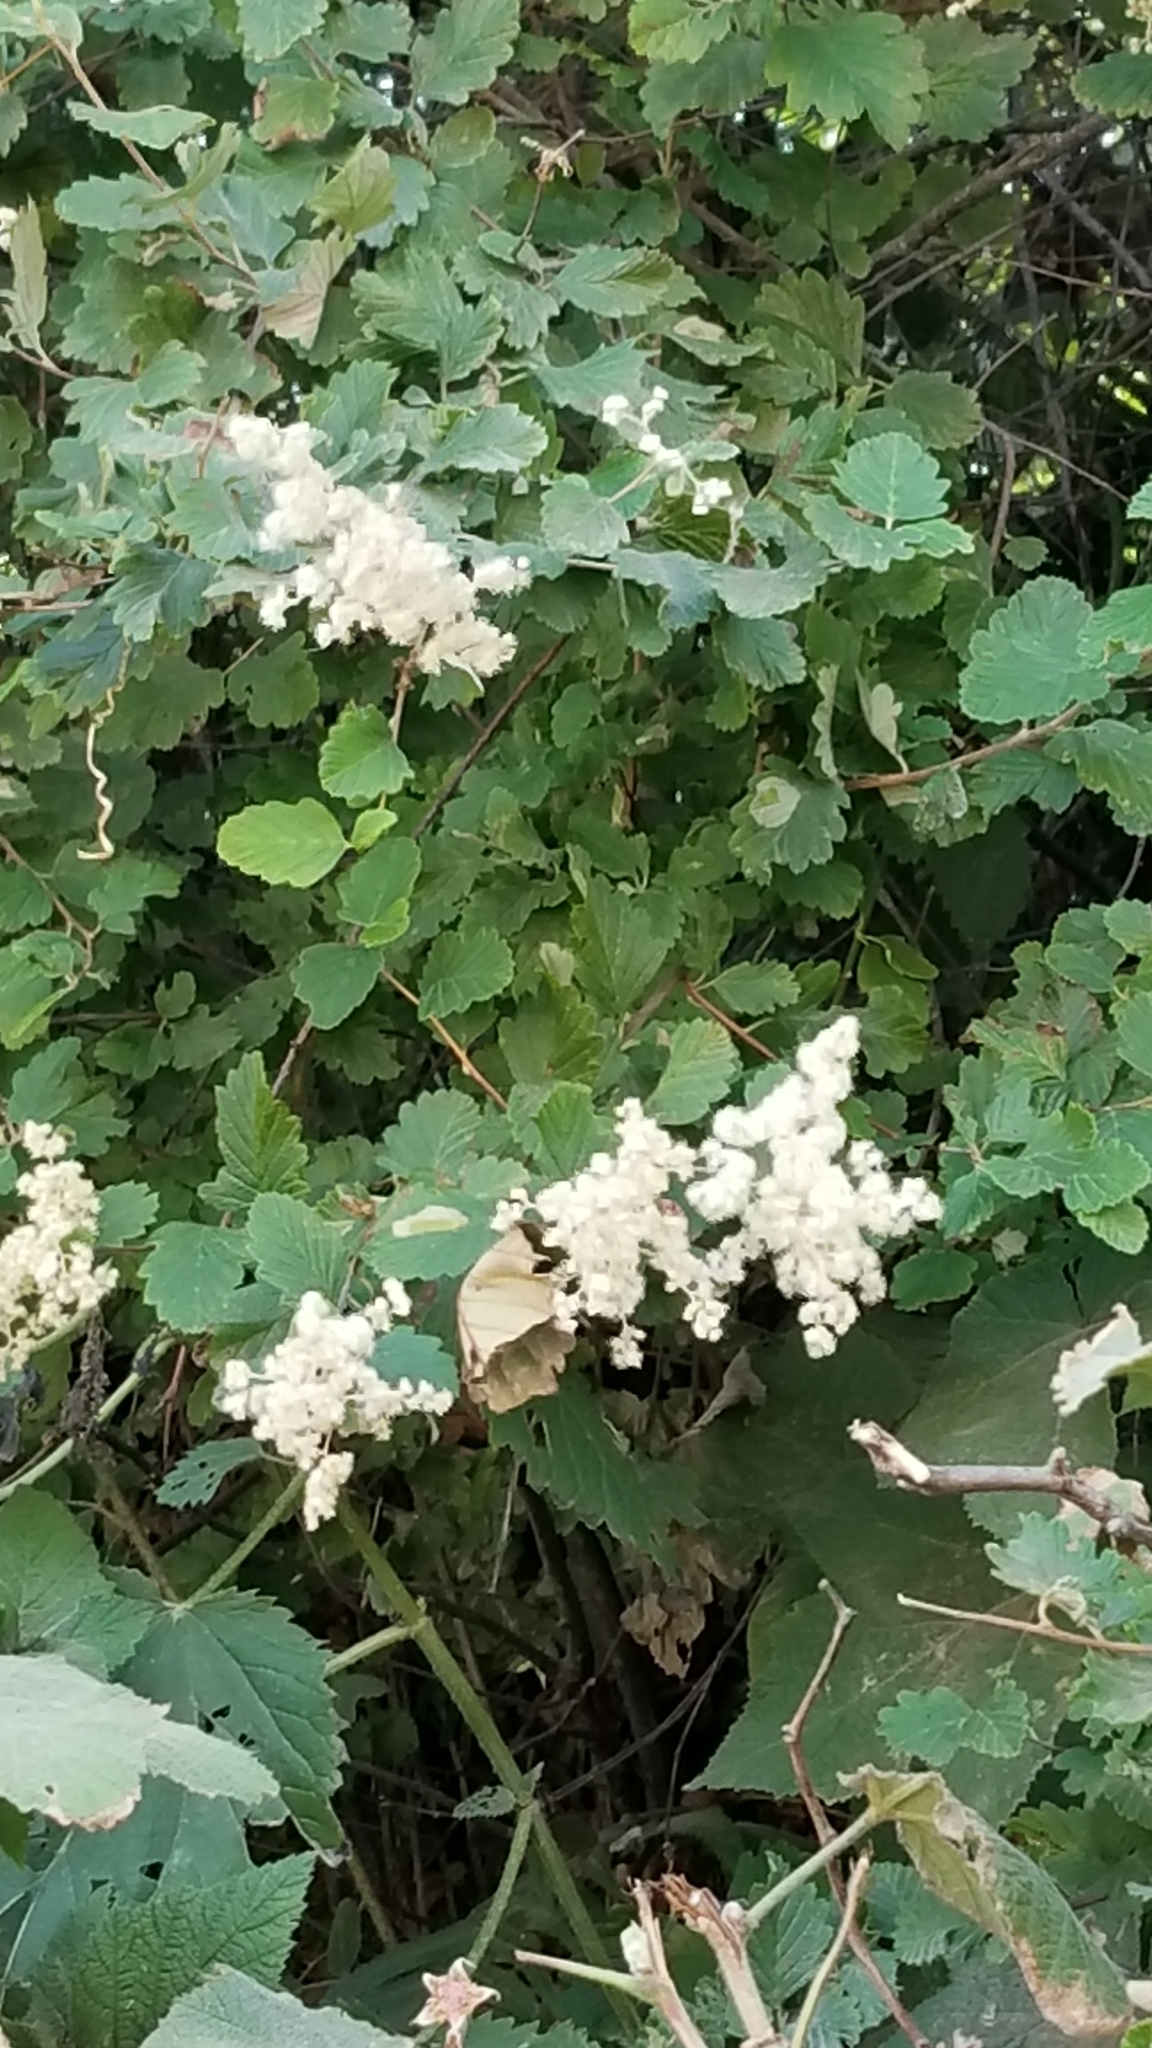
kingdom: Plantae
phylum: Tracheophyta
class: Magnoliopsida
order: Rosales
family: Rosaceae
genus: Holodiscus
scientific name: Holodiscus discolor
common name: Oceanspray
